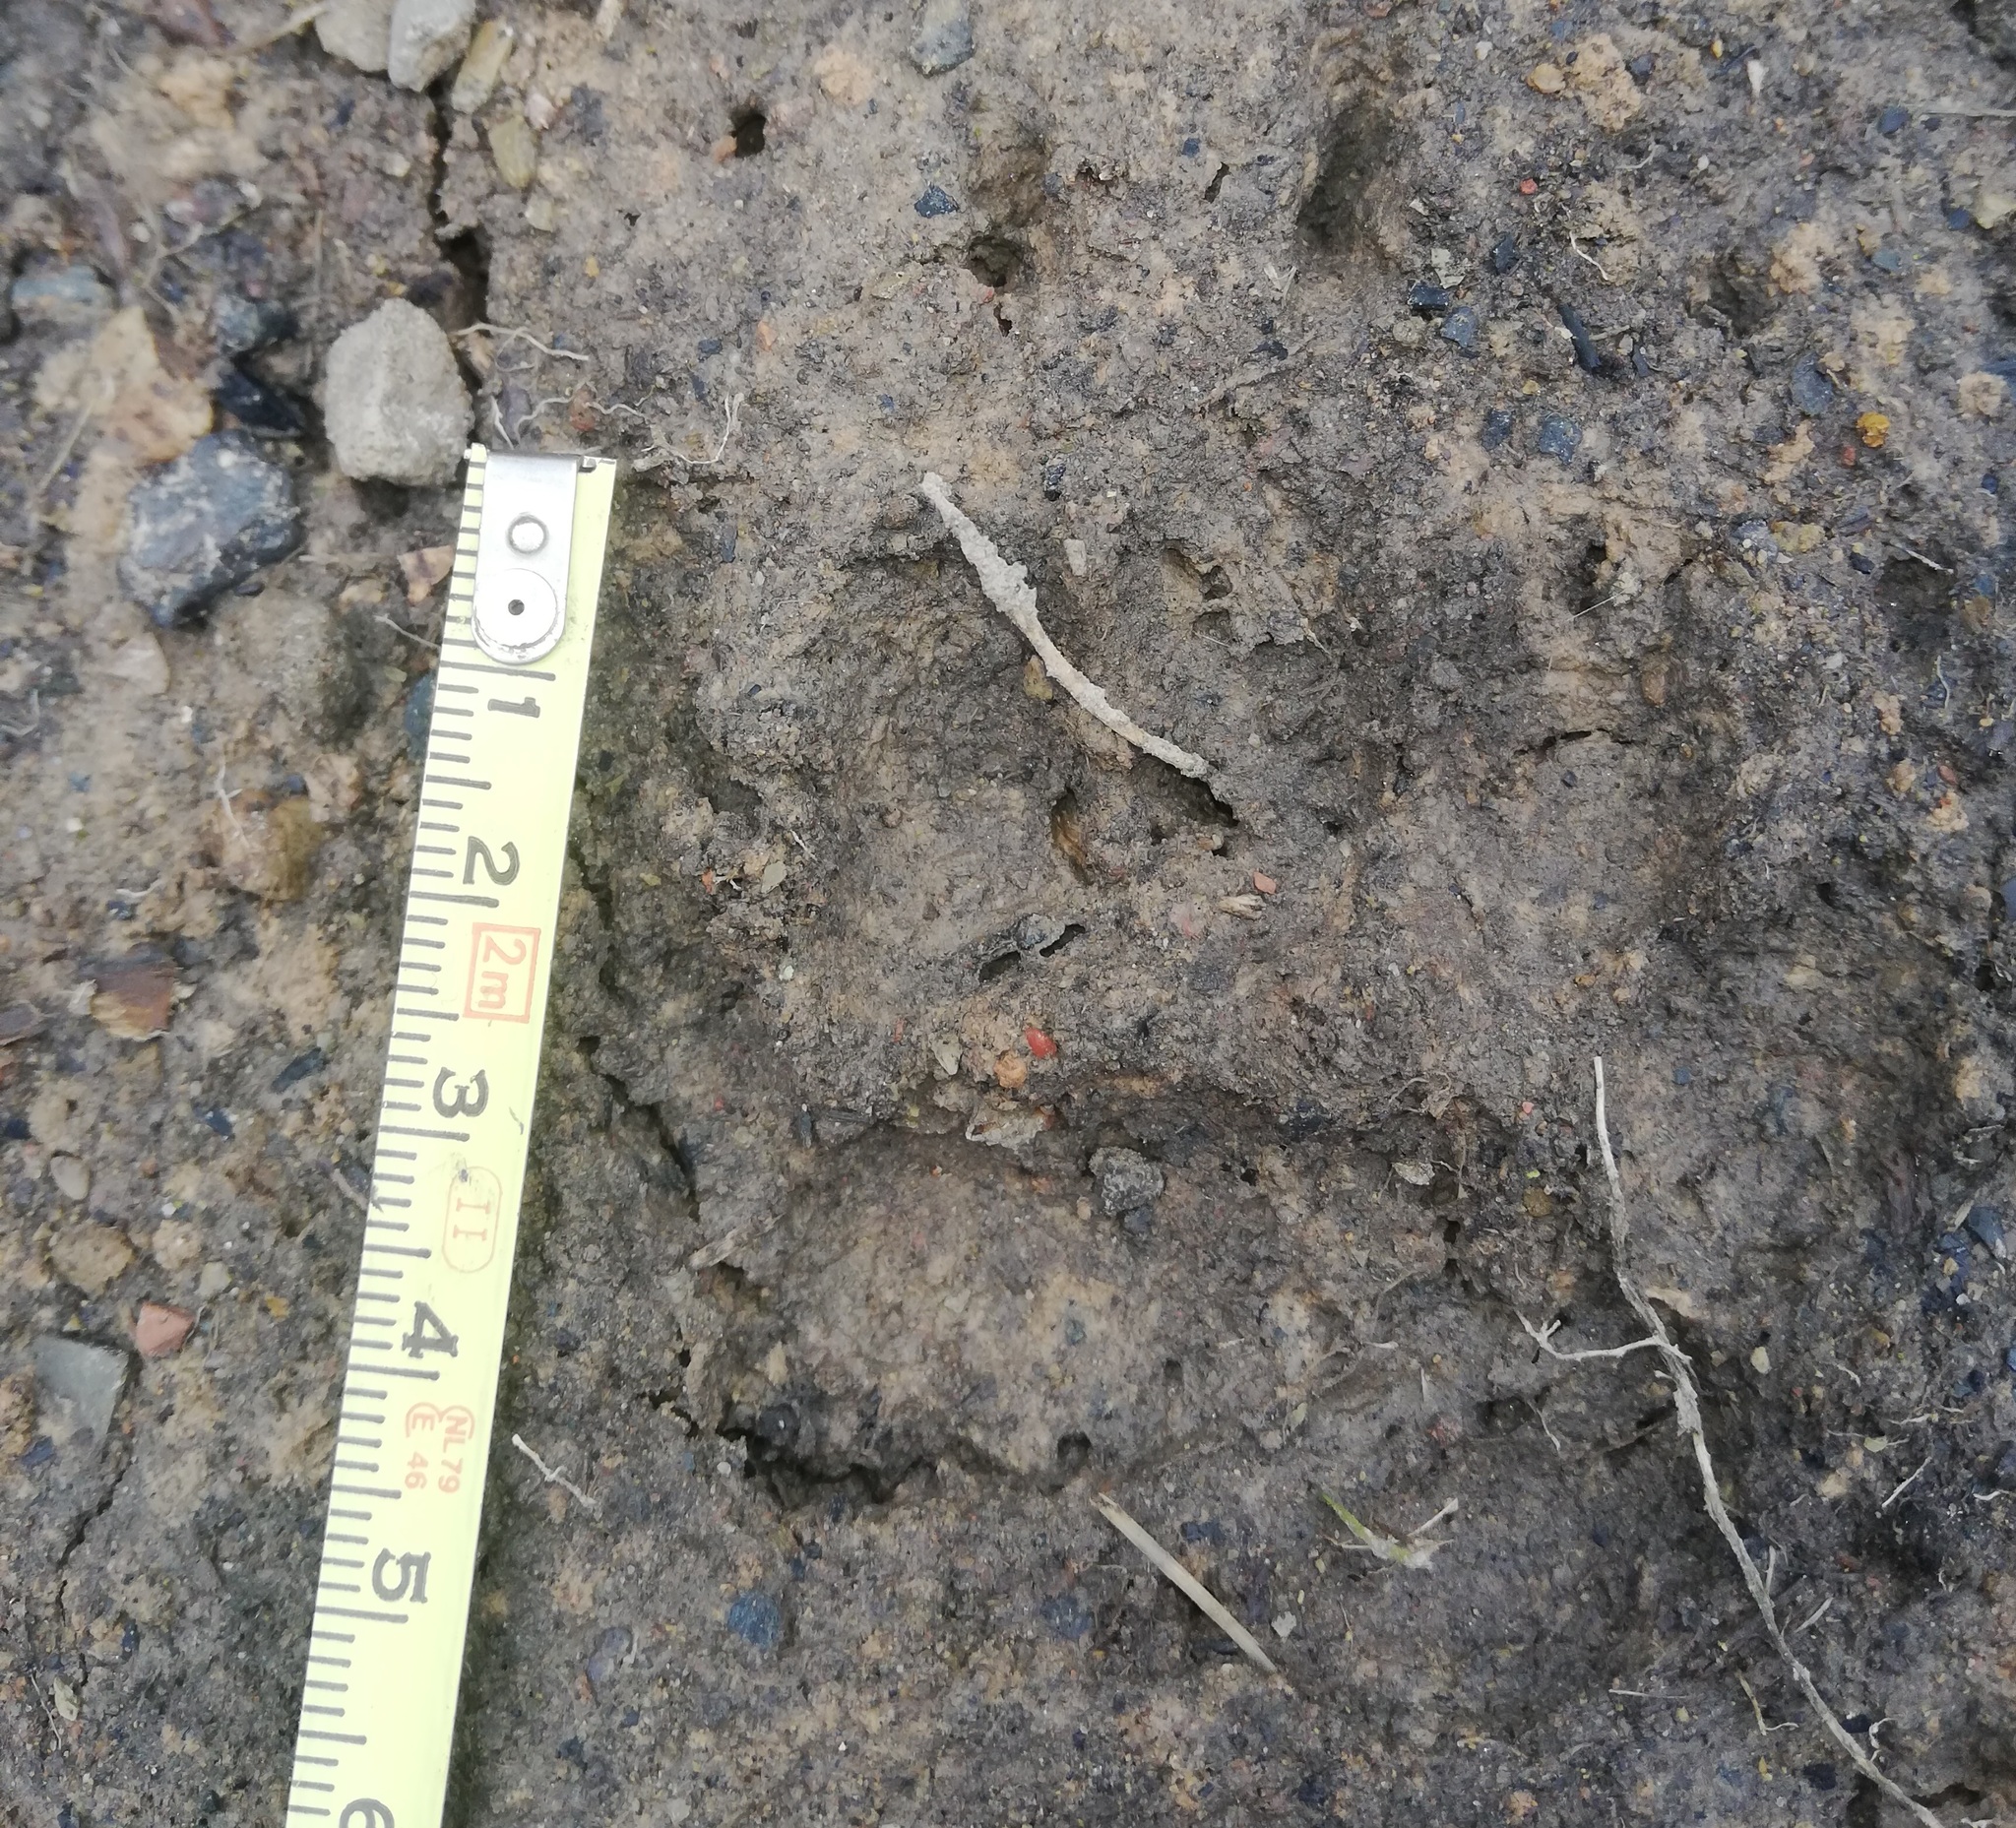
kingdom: Animalia
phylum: Chordata
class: Mammalia
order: Carnivora
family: Mustelidae
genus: Meles
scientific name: Meles meles
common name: Eurasian badger
